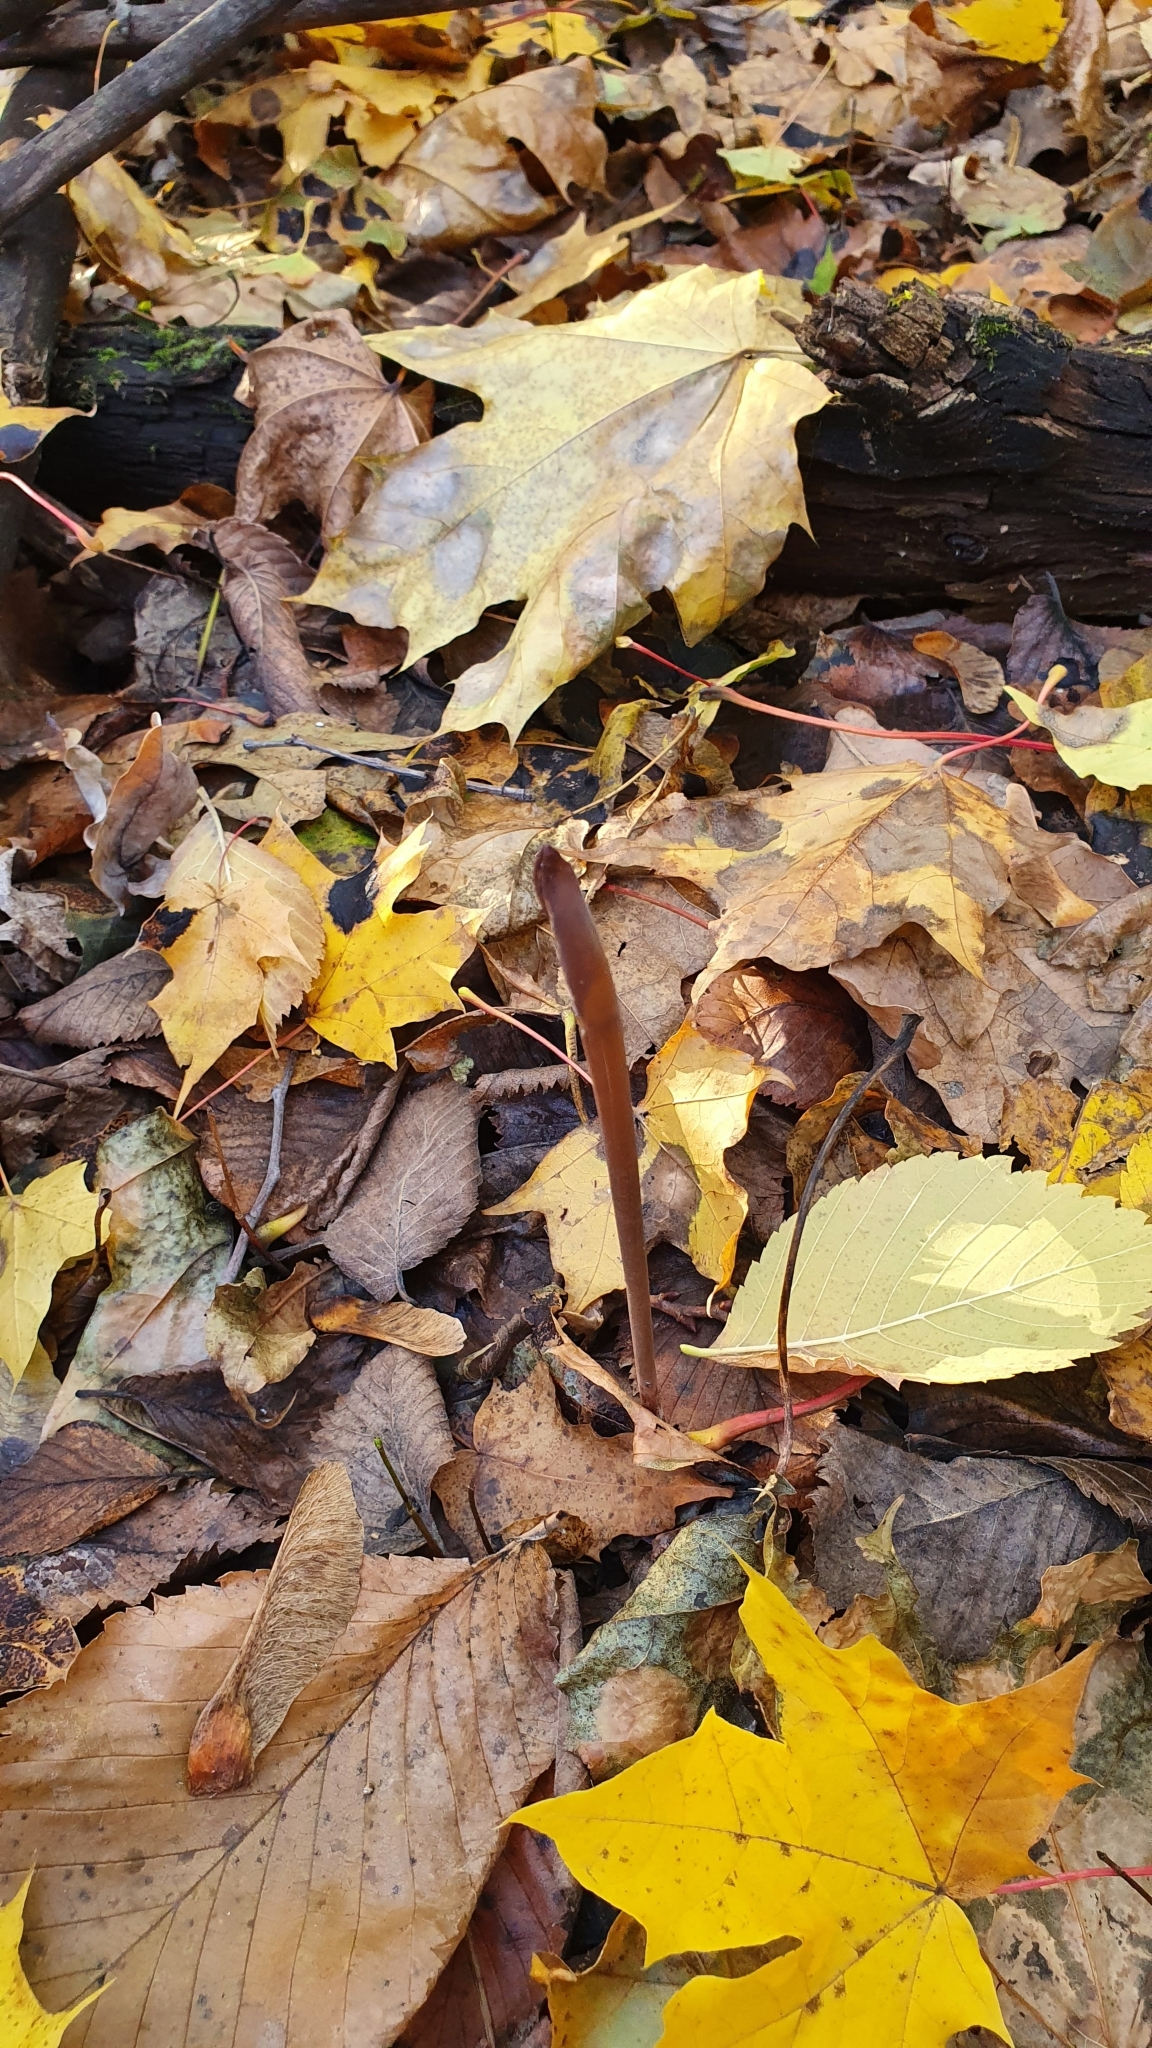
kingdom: Fungi
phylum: Basidiomycota
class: Agaricomycetes
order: Agaricales
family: Typhulaceae
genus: Typhula
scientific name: Typhula fistulosa
